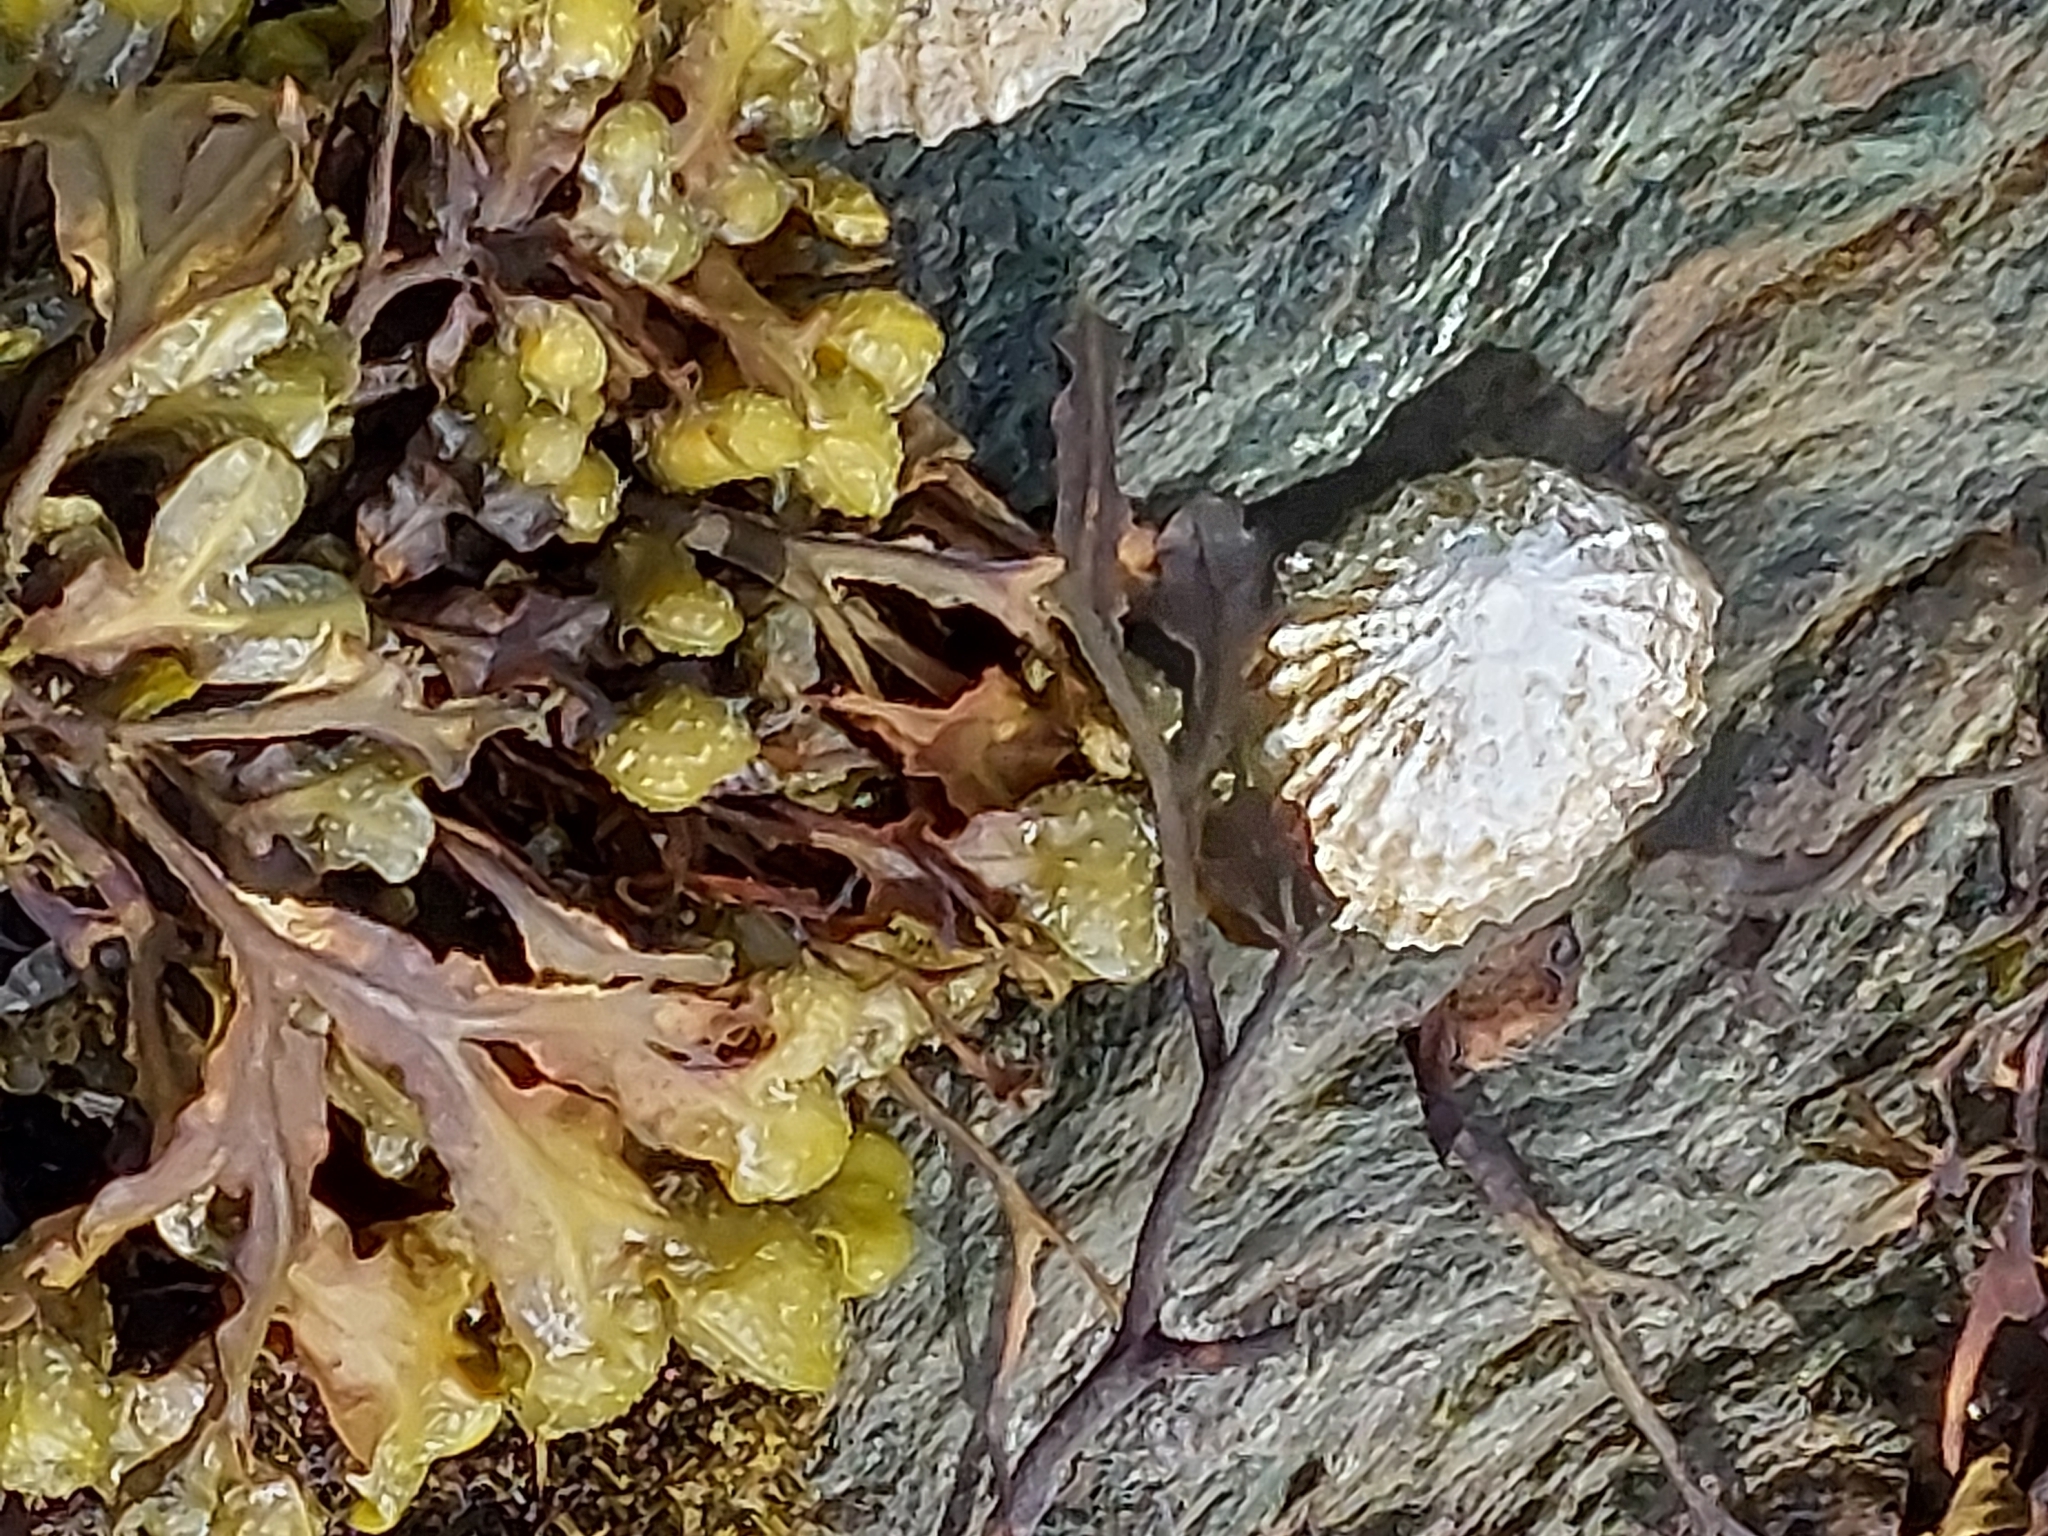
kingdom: Animalia
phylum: Mollusca
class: Gastropoda
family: Patellidae
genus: Patella
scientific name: Patella
